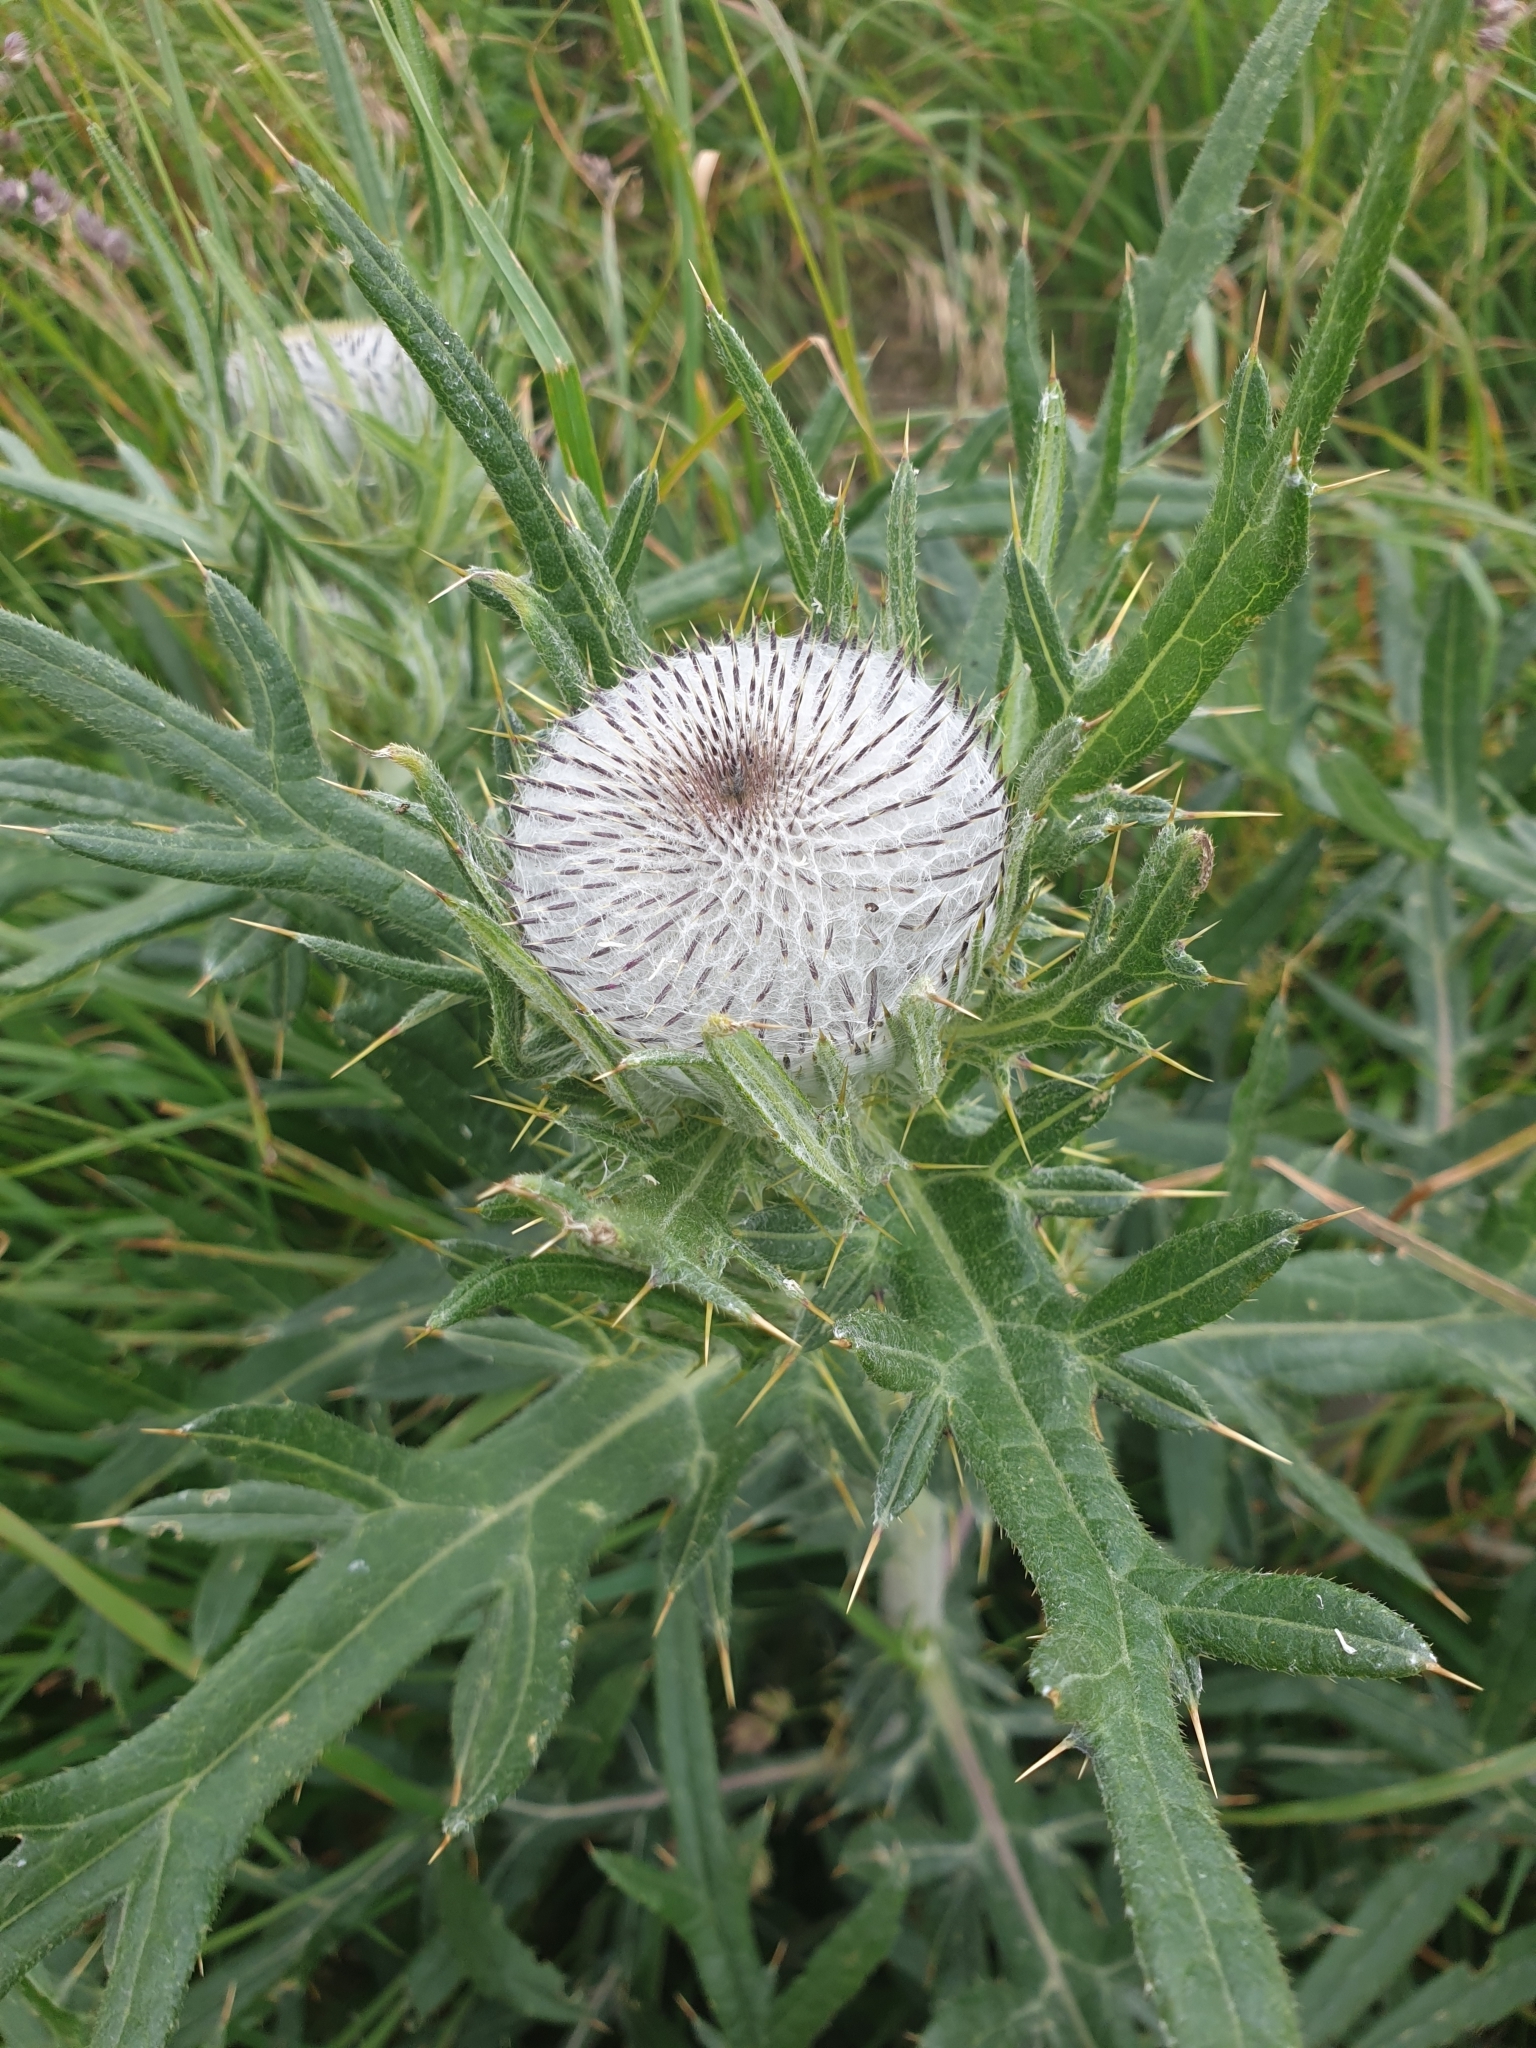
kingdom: Plantae
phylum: Tracheophyta
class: Magnoliopsida
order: Asterales
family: Asteraceae
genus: Lophiolepis
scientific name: Lophiolepis eriophora
